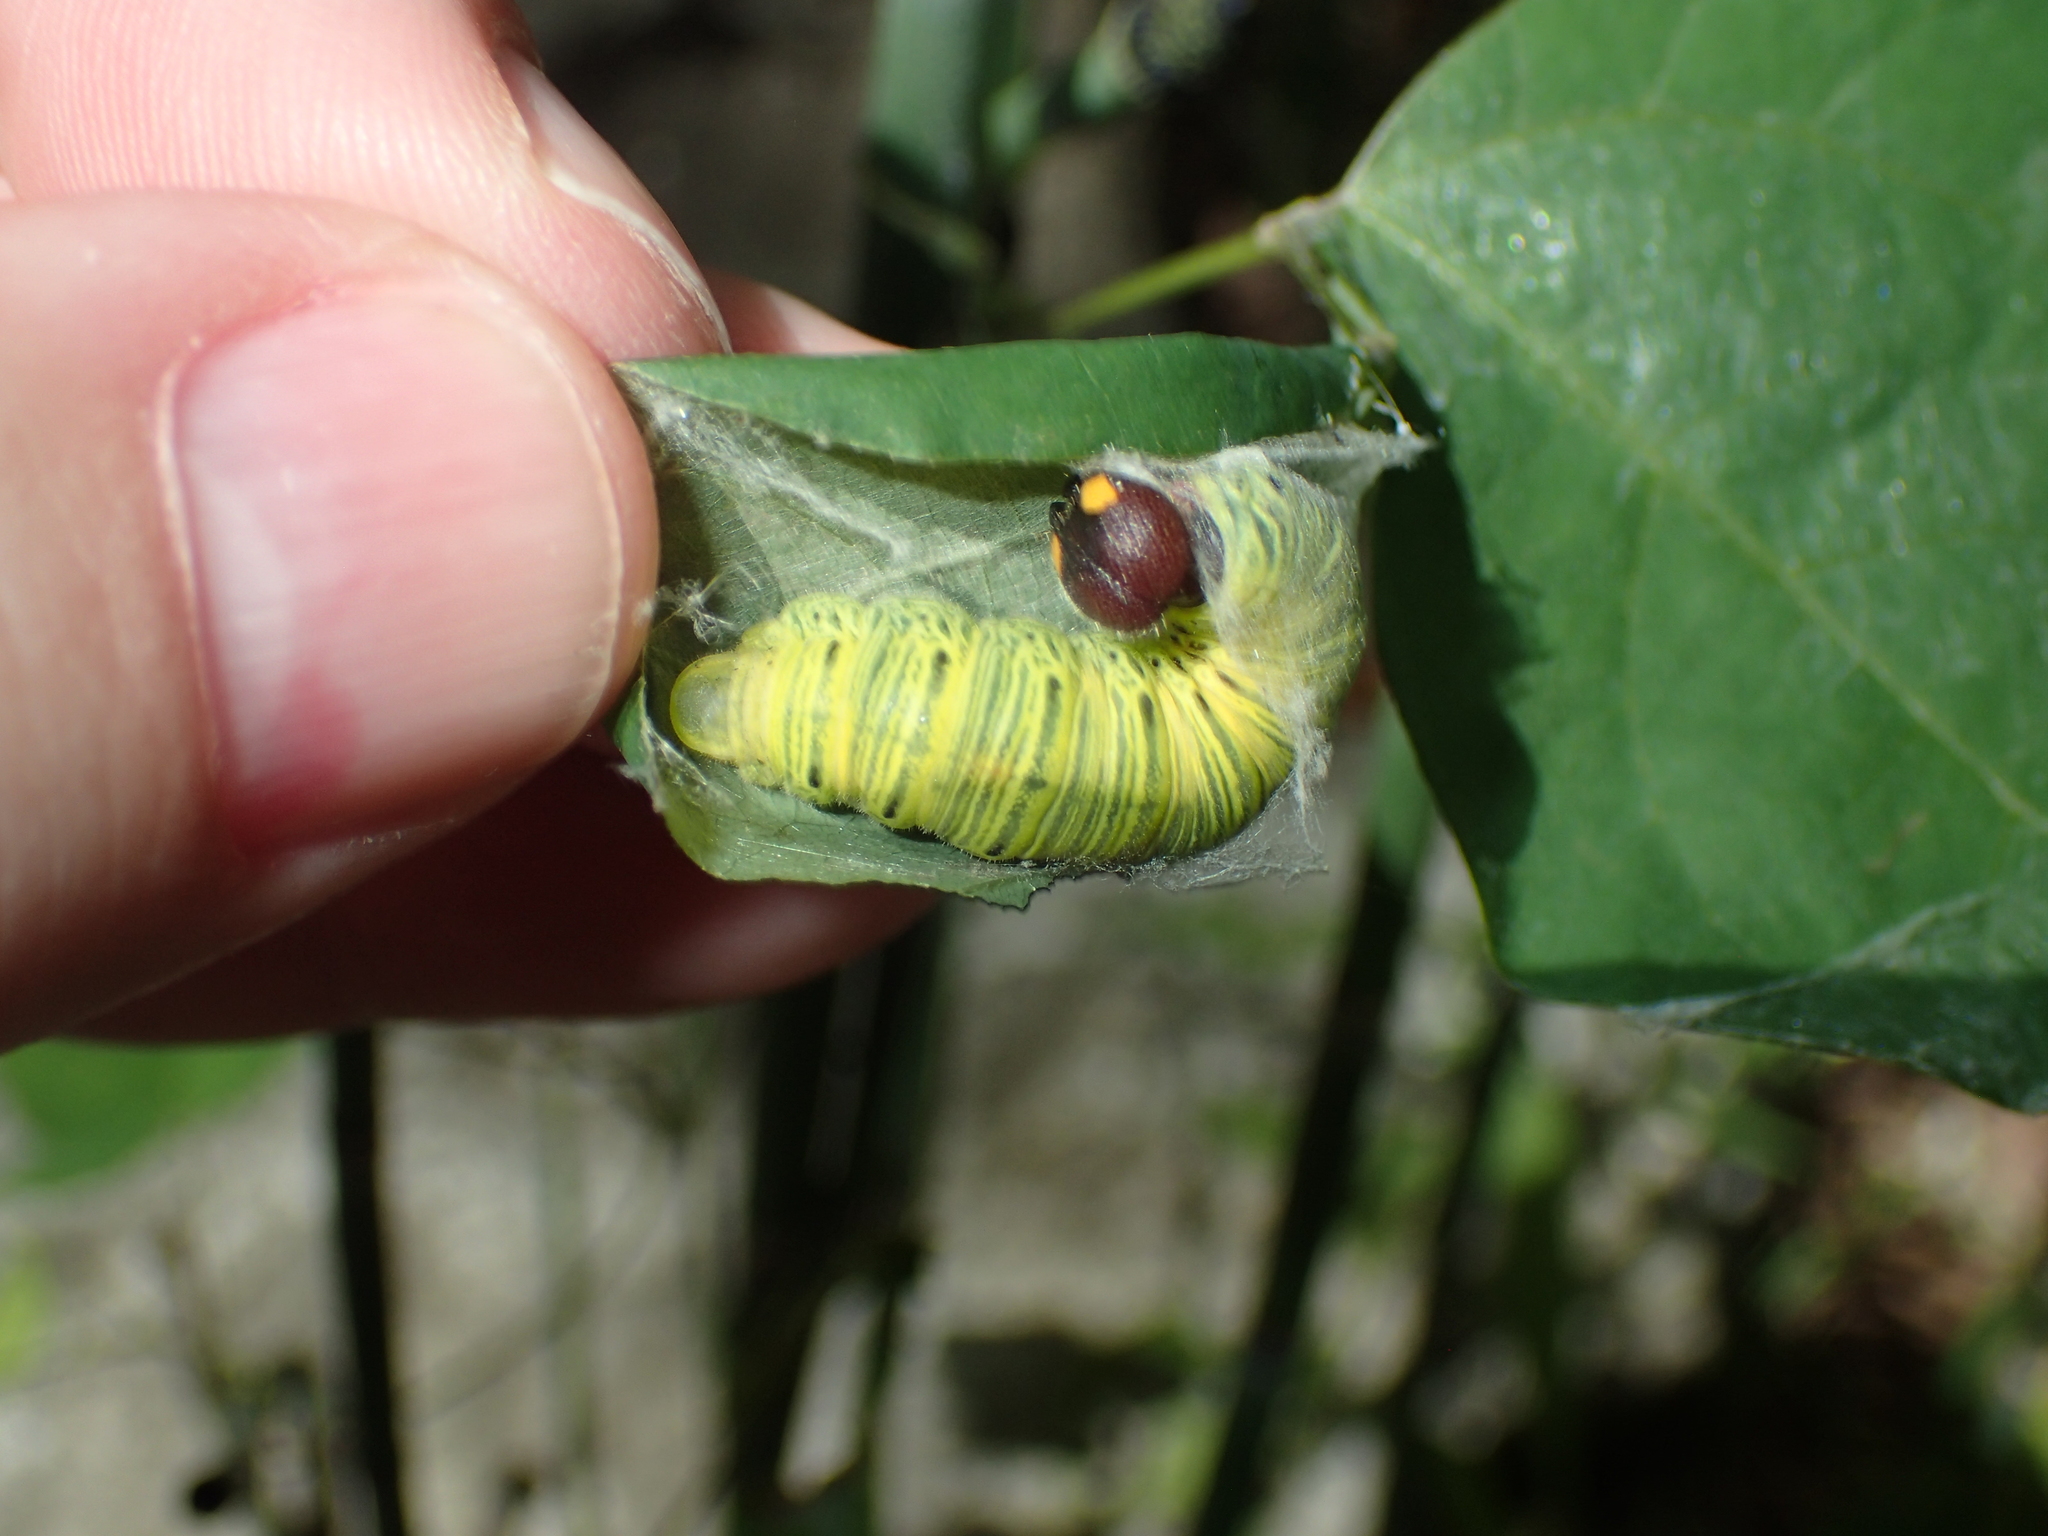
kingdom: Animalia
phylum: Arthropoda
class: Insecta
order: Lepidoptera
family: Hesperiidae
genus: Epargyreus
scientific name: Epargyreus clarus
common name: Silver-spotted skipper
